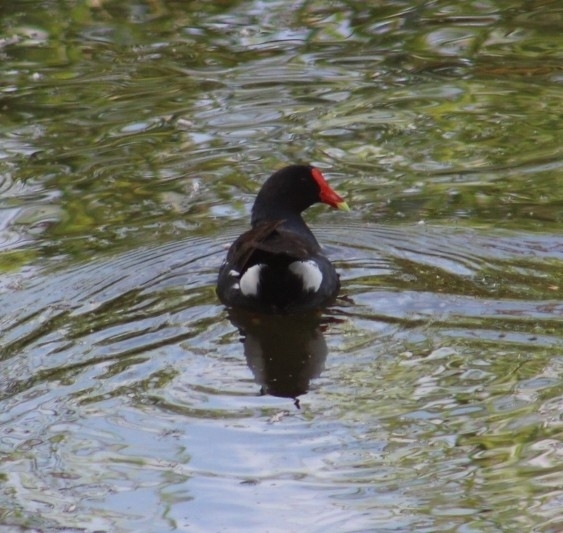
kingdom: Animalia
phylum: Chordata
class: Aves
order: Gruiformes
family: Rallidae
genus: Gallinula
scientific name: Gallinula chloropus
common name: Common moorhen
